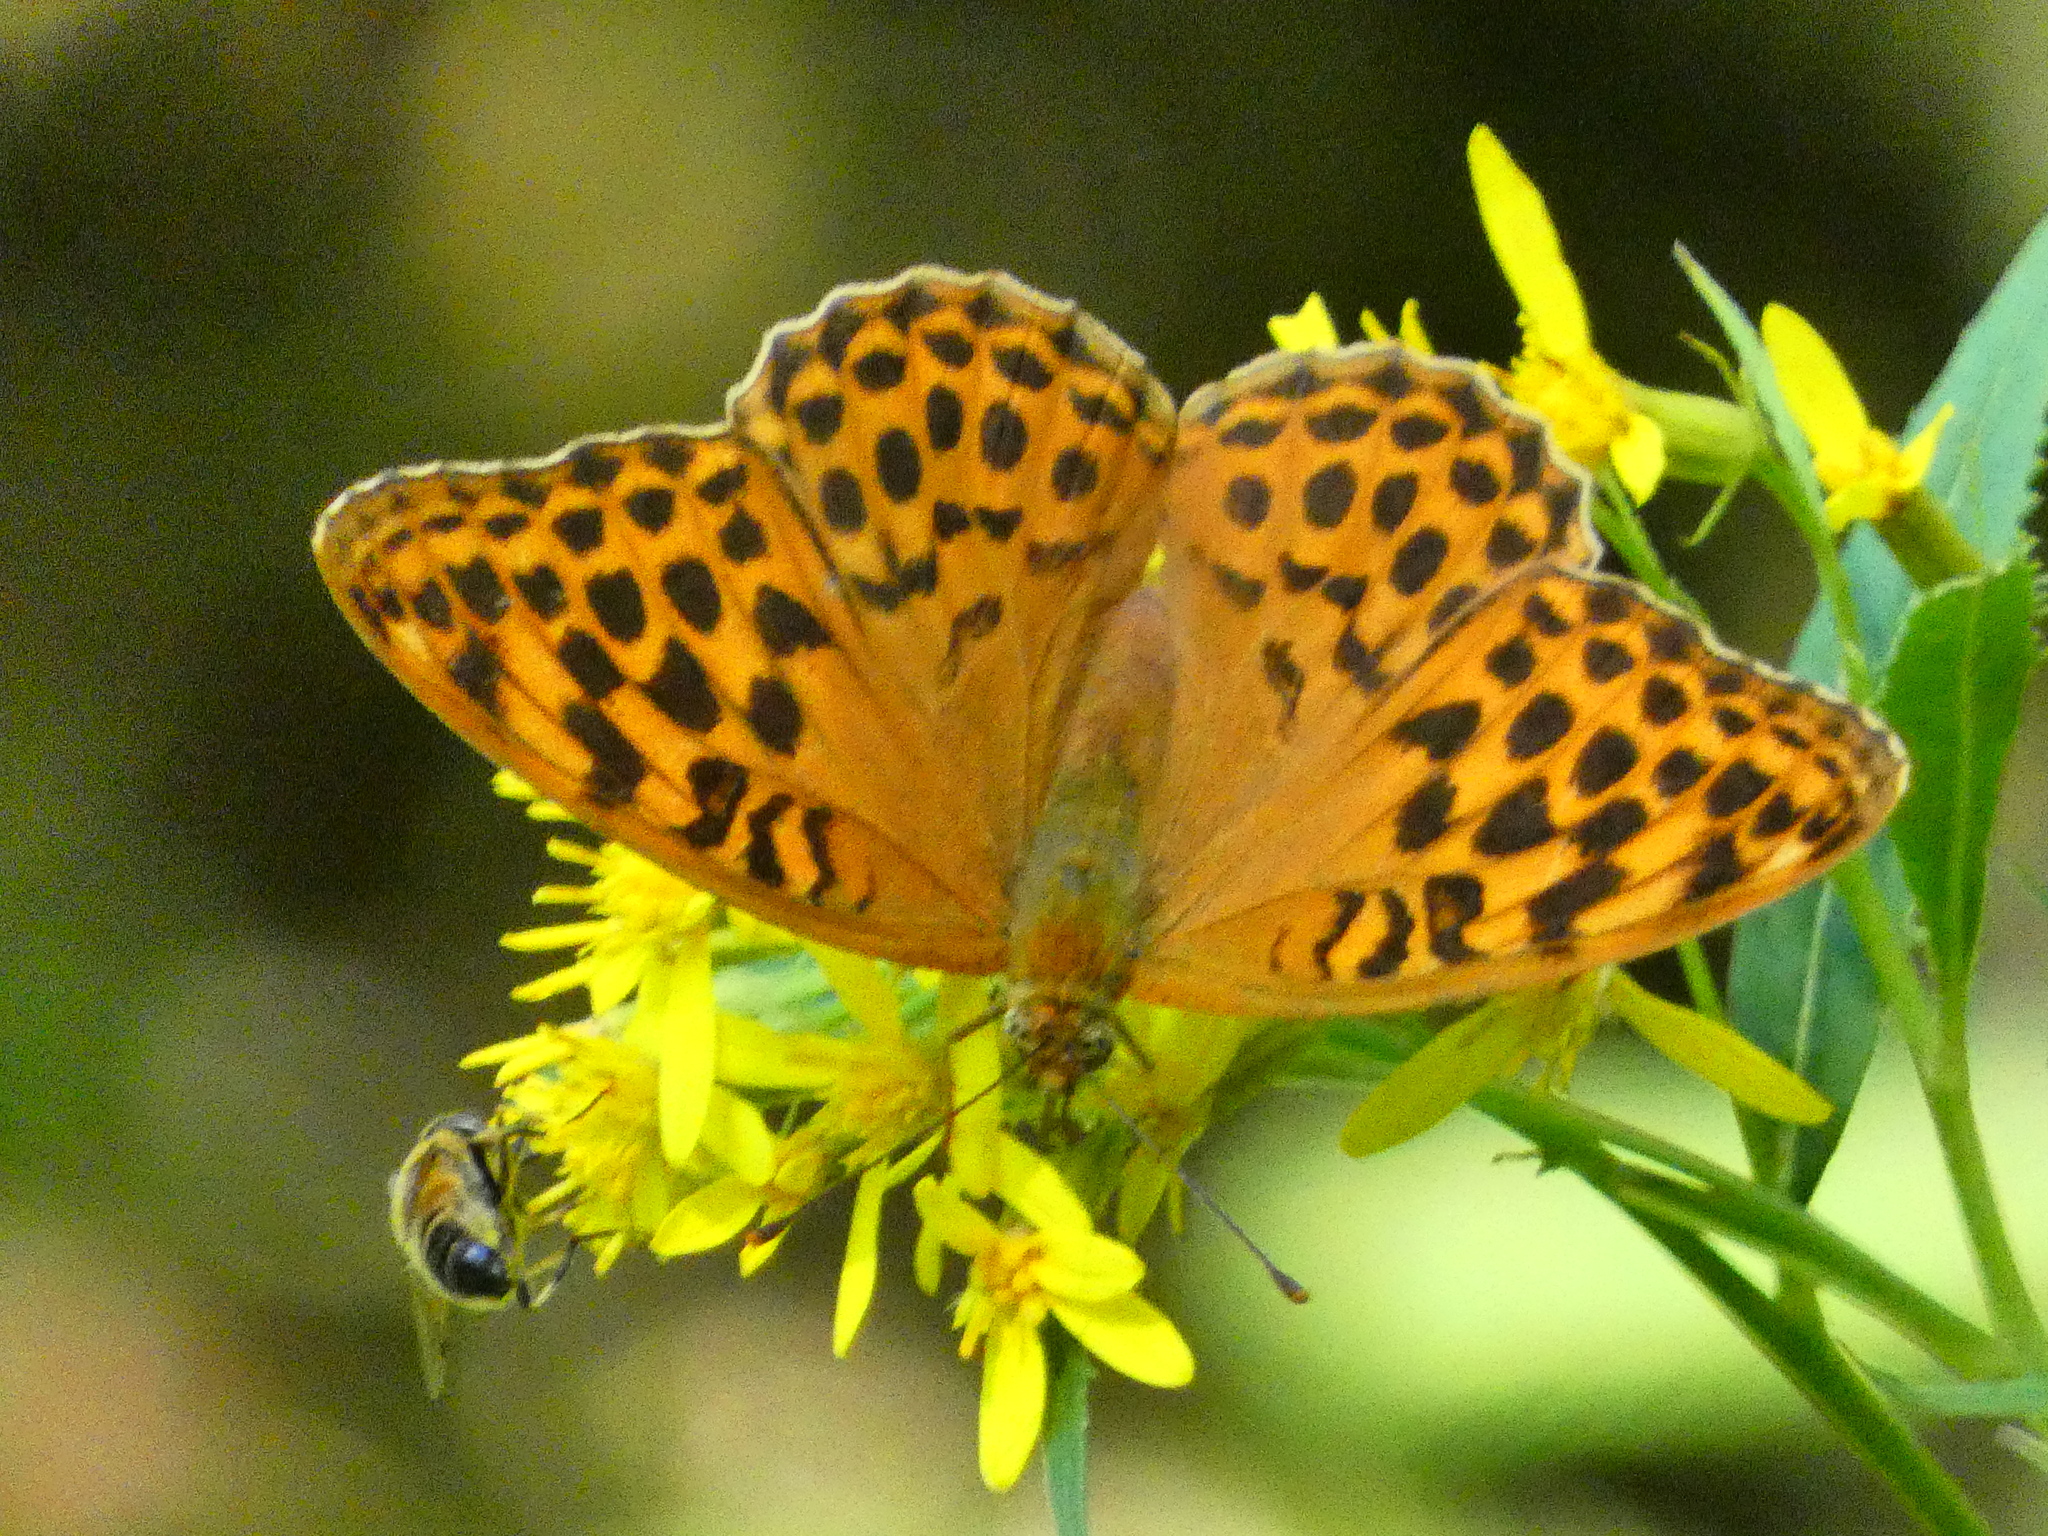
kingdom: Animalia
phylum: Arthropoda
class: Insecta
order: Lepidoptera
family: Nymphalidae
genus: Argynnis
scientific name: Argynnis paphia
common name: Silver-washed fritillary
